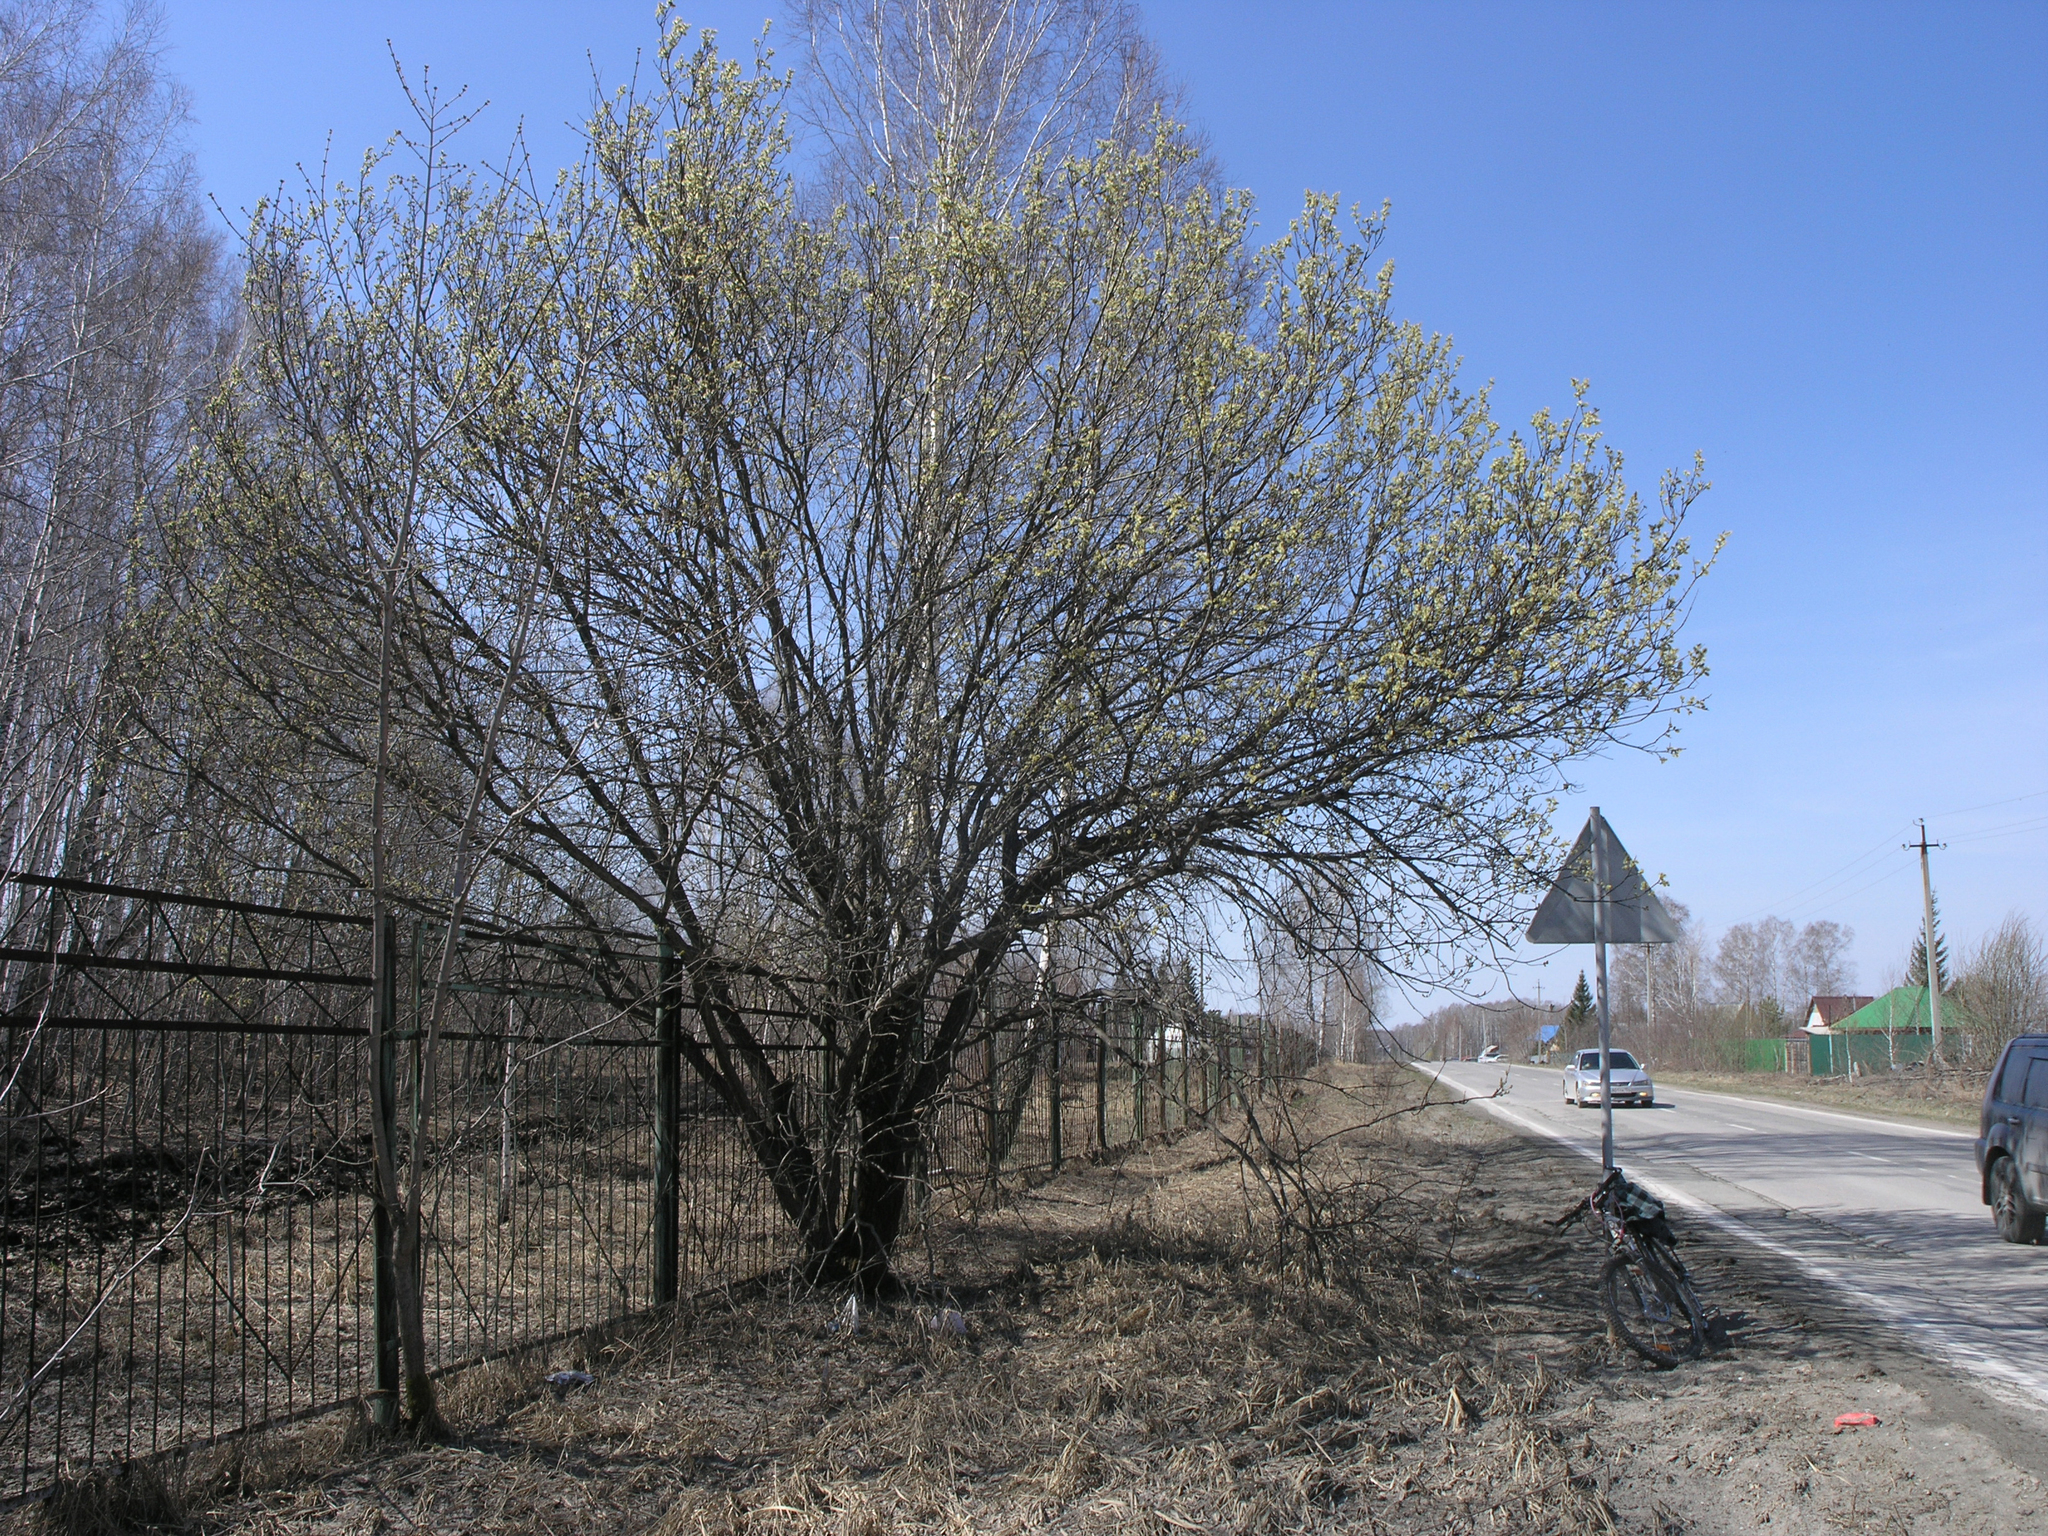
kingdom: Plantae
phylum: Tracheophyta
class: Magnoliopsida
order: Malpighiales
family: Salicaceae
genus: Salix
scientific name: Salix caprea
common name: Goat willow
